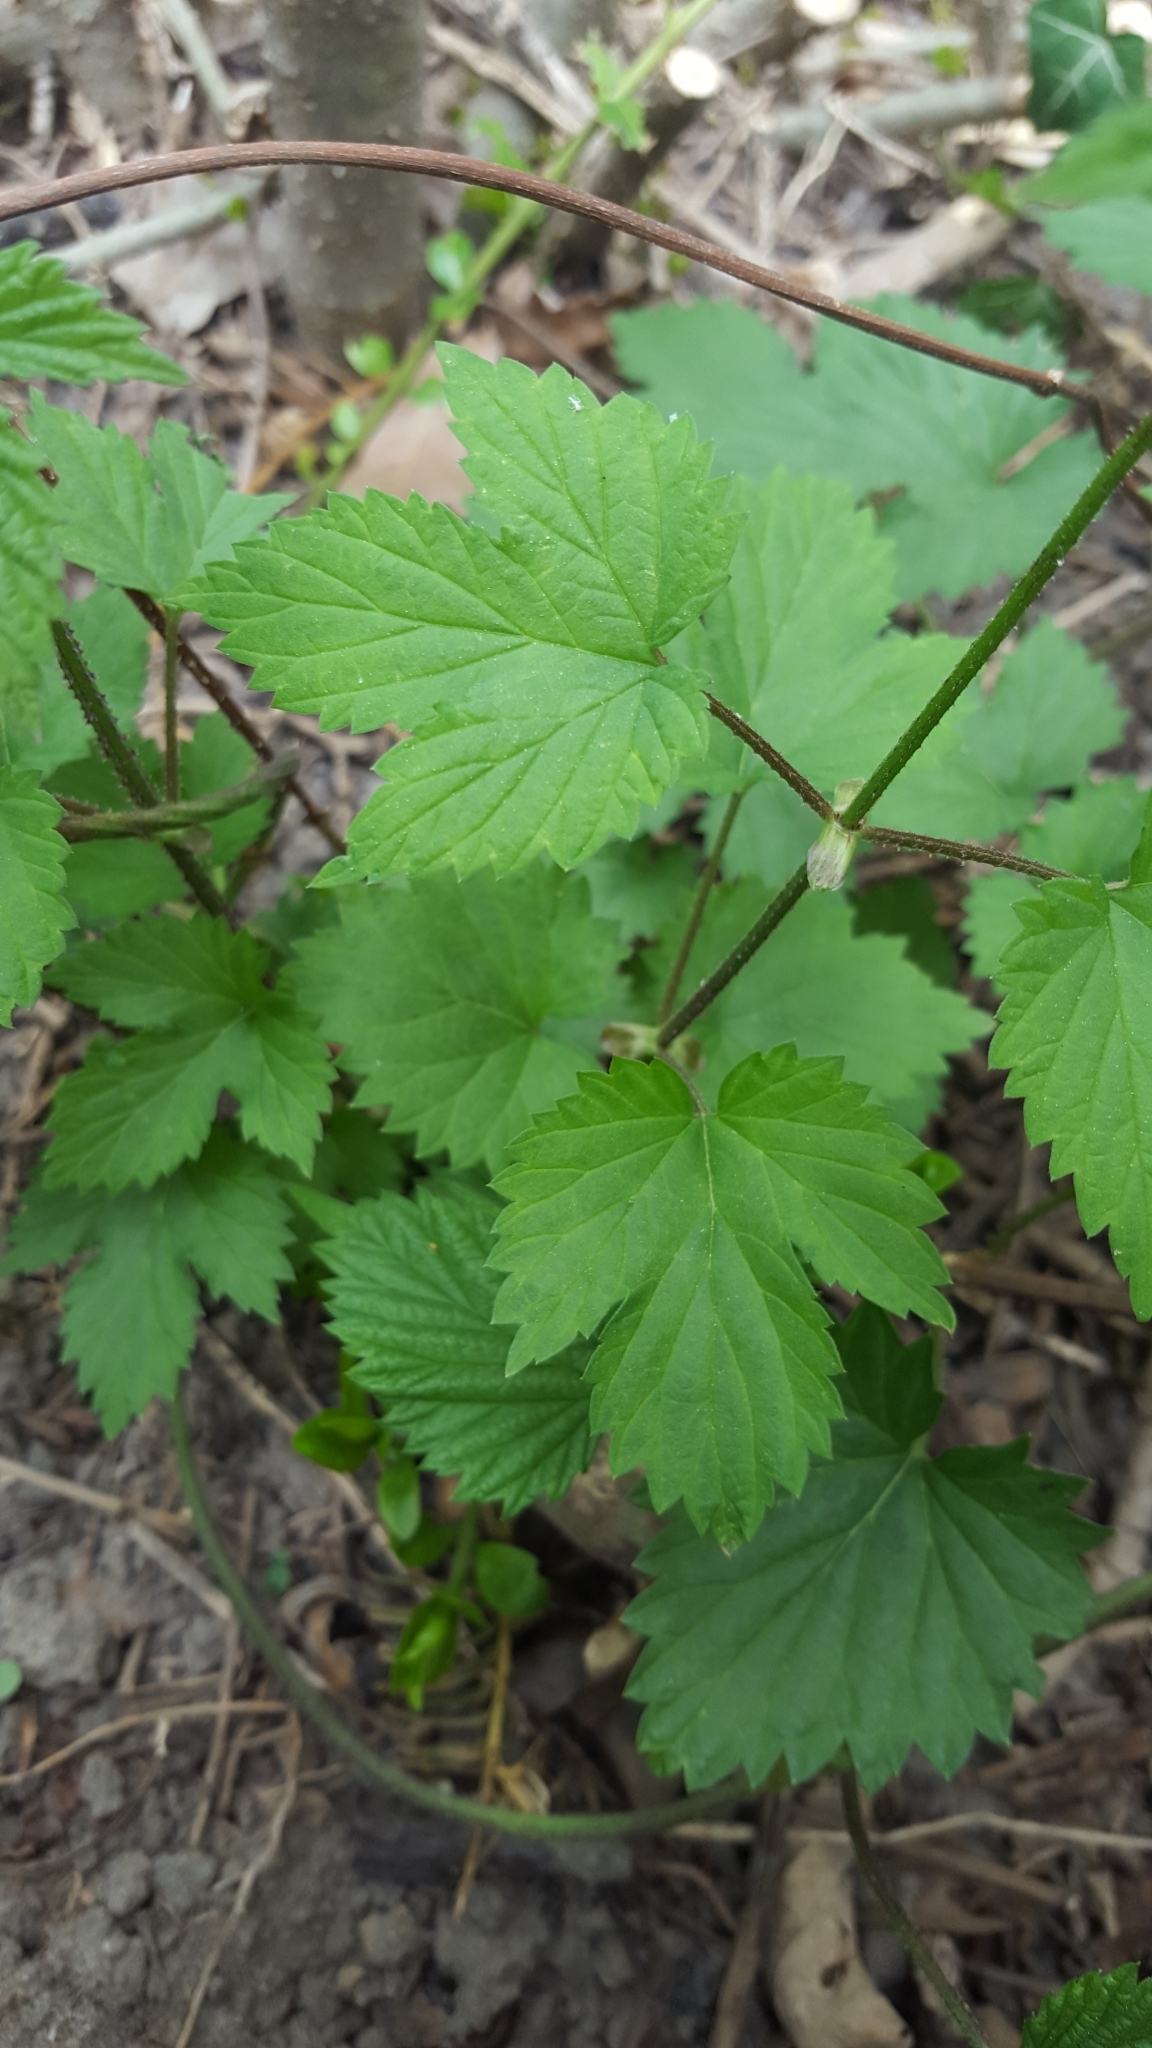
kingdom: Plantae
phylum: Tracheophyta
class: Magnoliopsida
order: Rosales
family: Cannabaceae
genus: Humulus
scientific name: Humulus lupulus
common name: Hop
